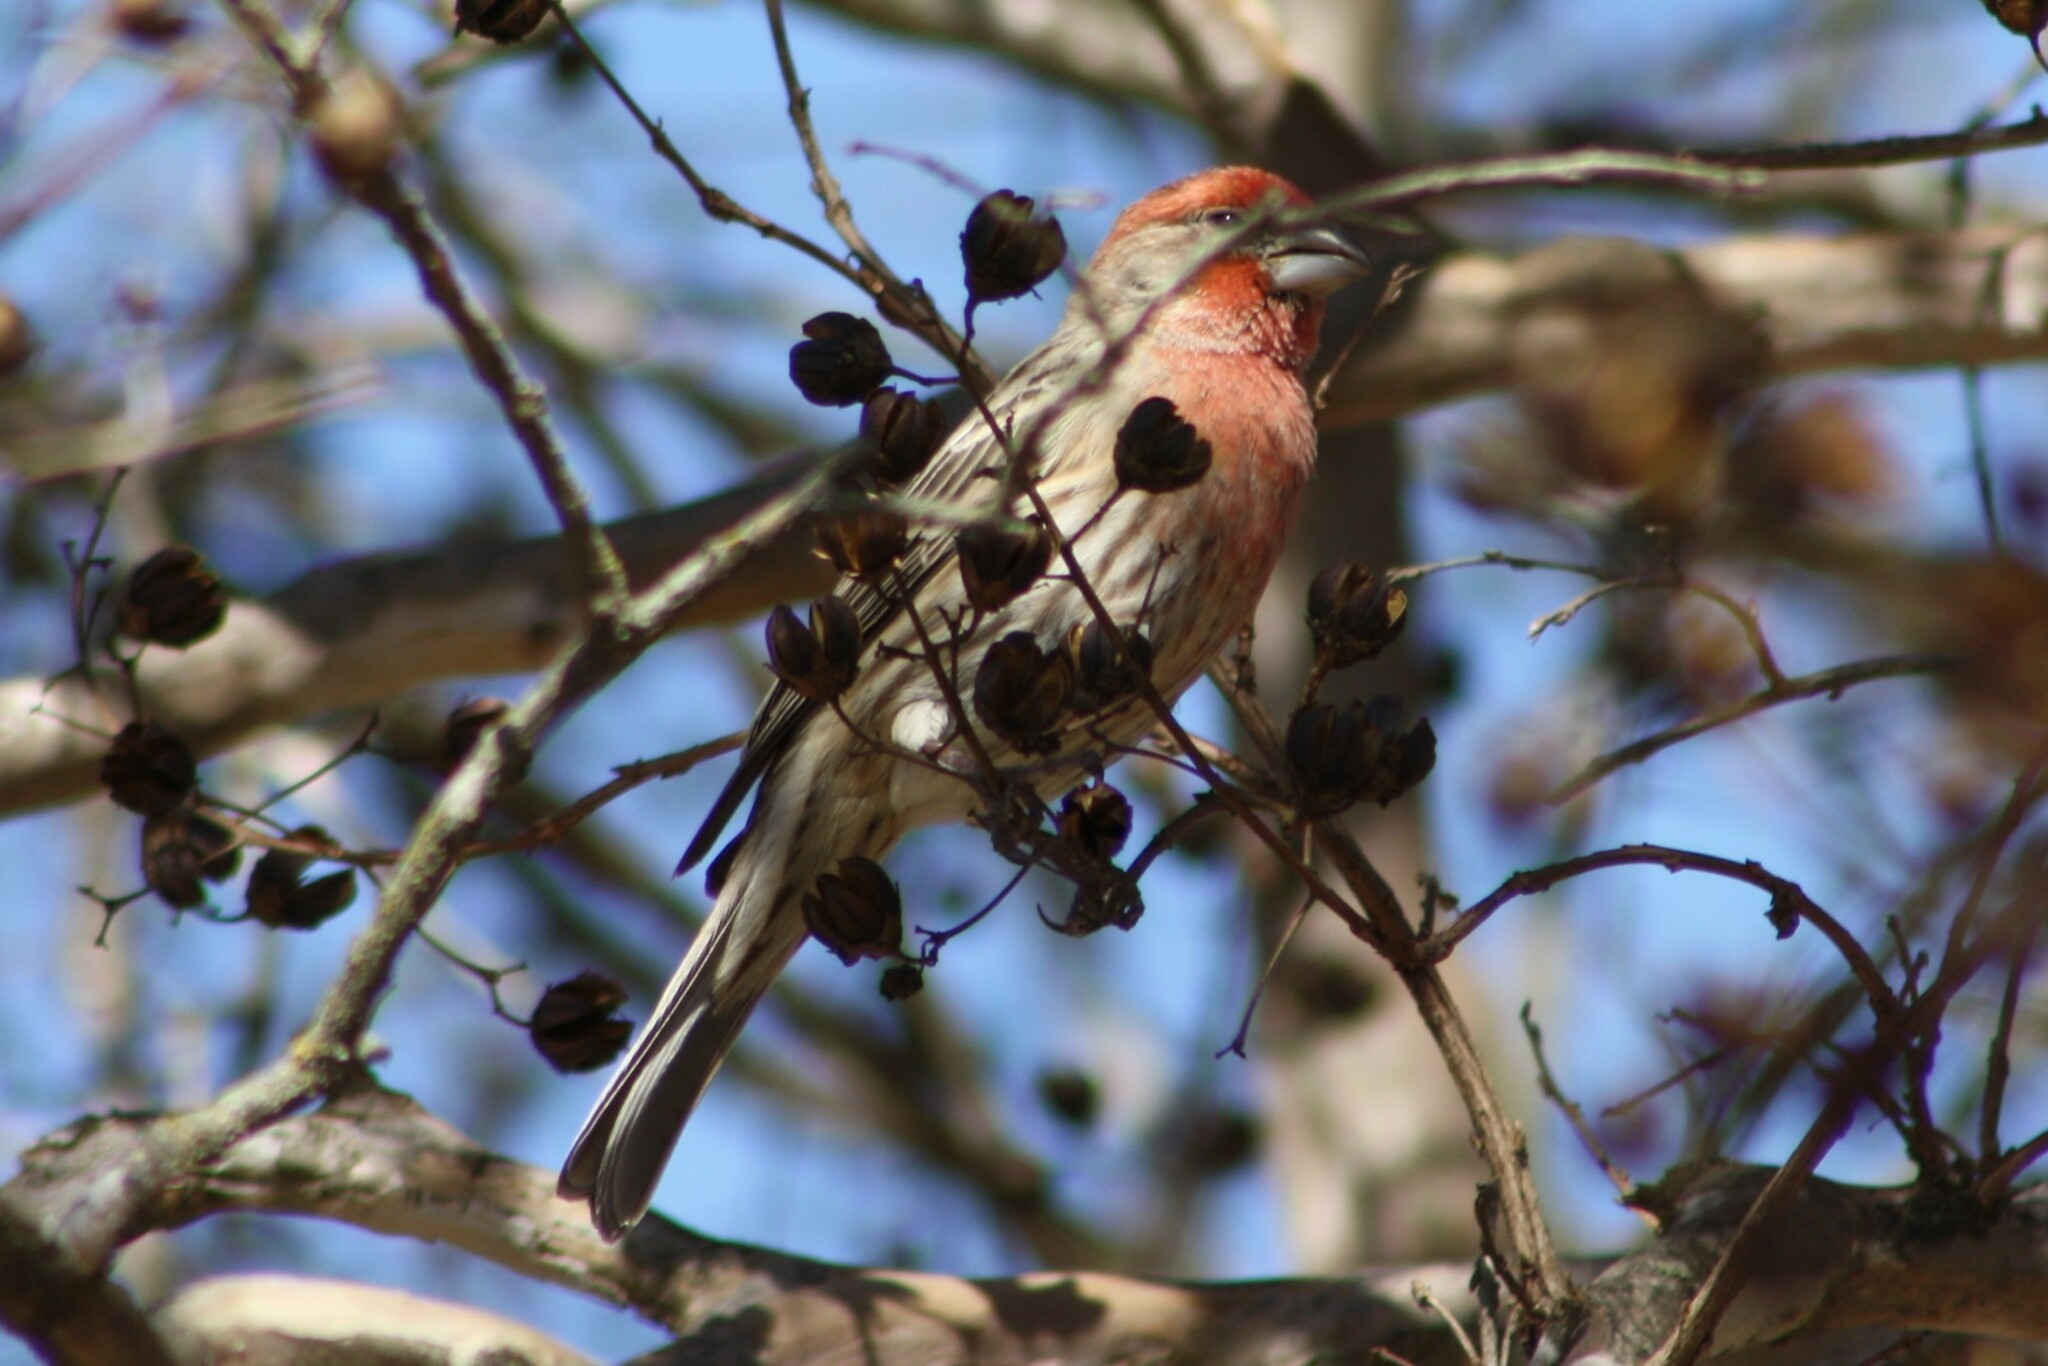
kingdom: Animalia
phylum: Chordata
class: Aves
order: Passeriformes
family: Fringillidae
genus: Haemorhous
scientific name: Haemorhous mexicanus
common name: House finch
